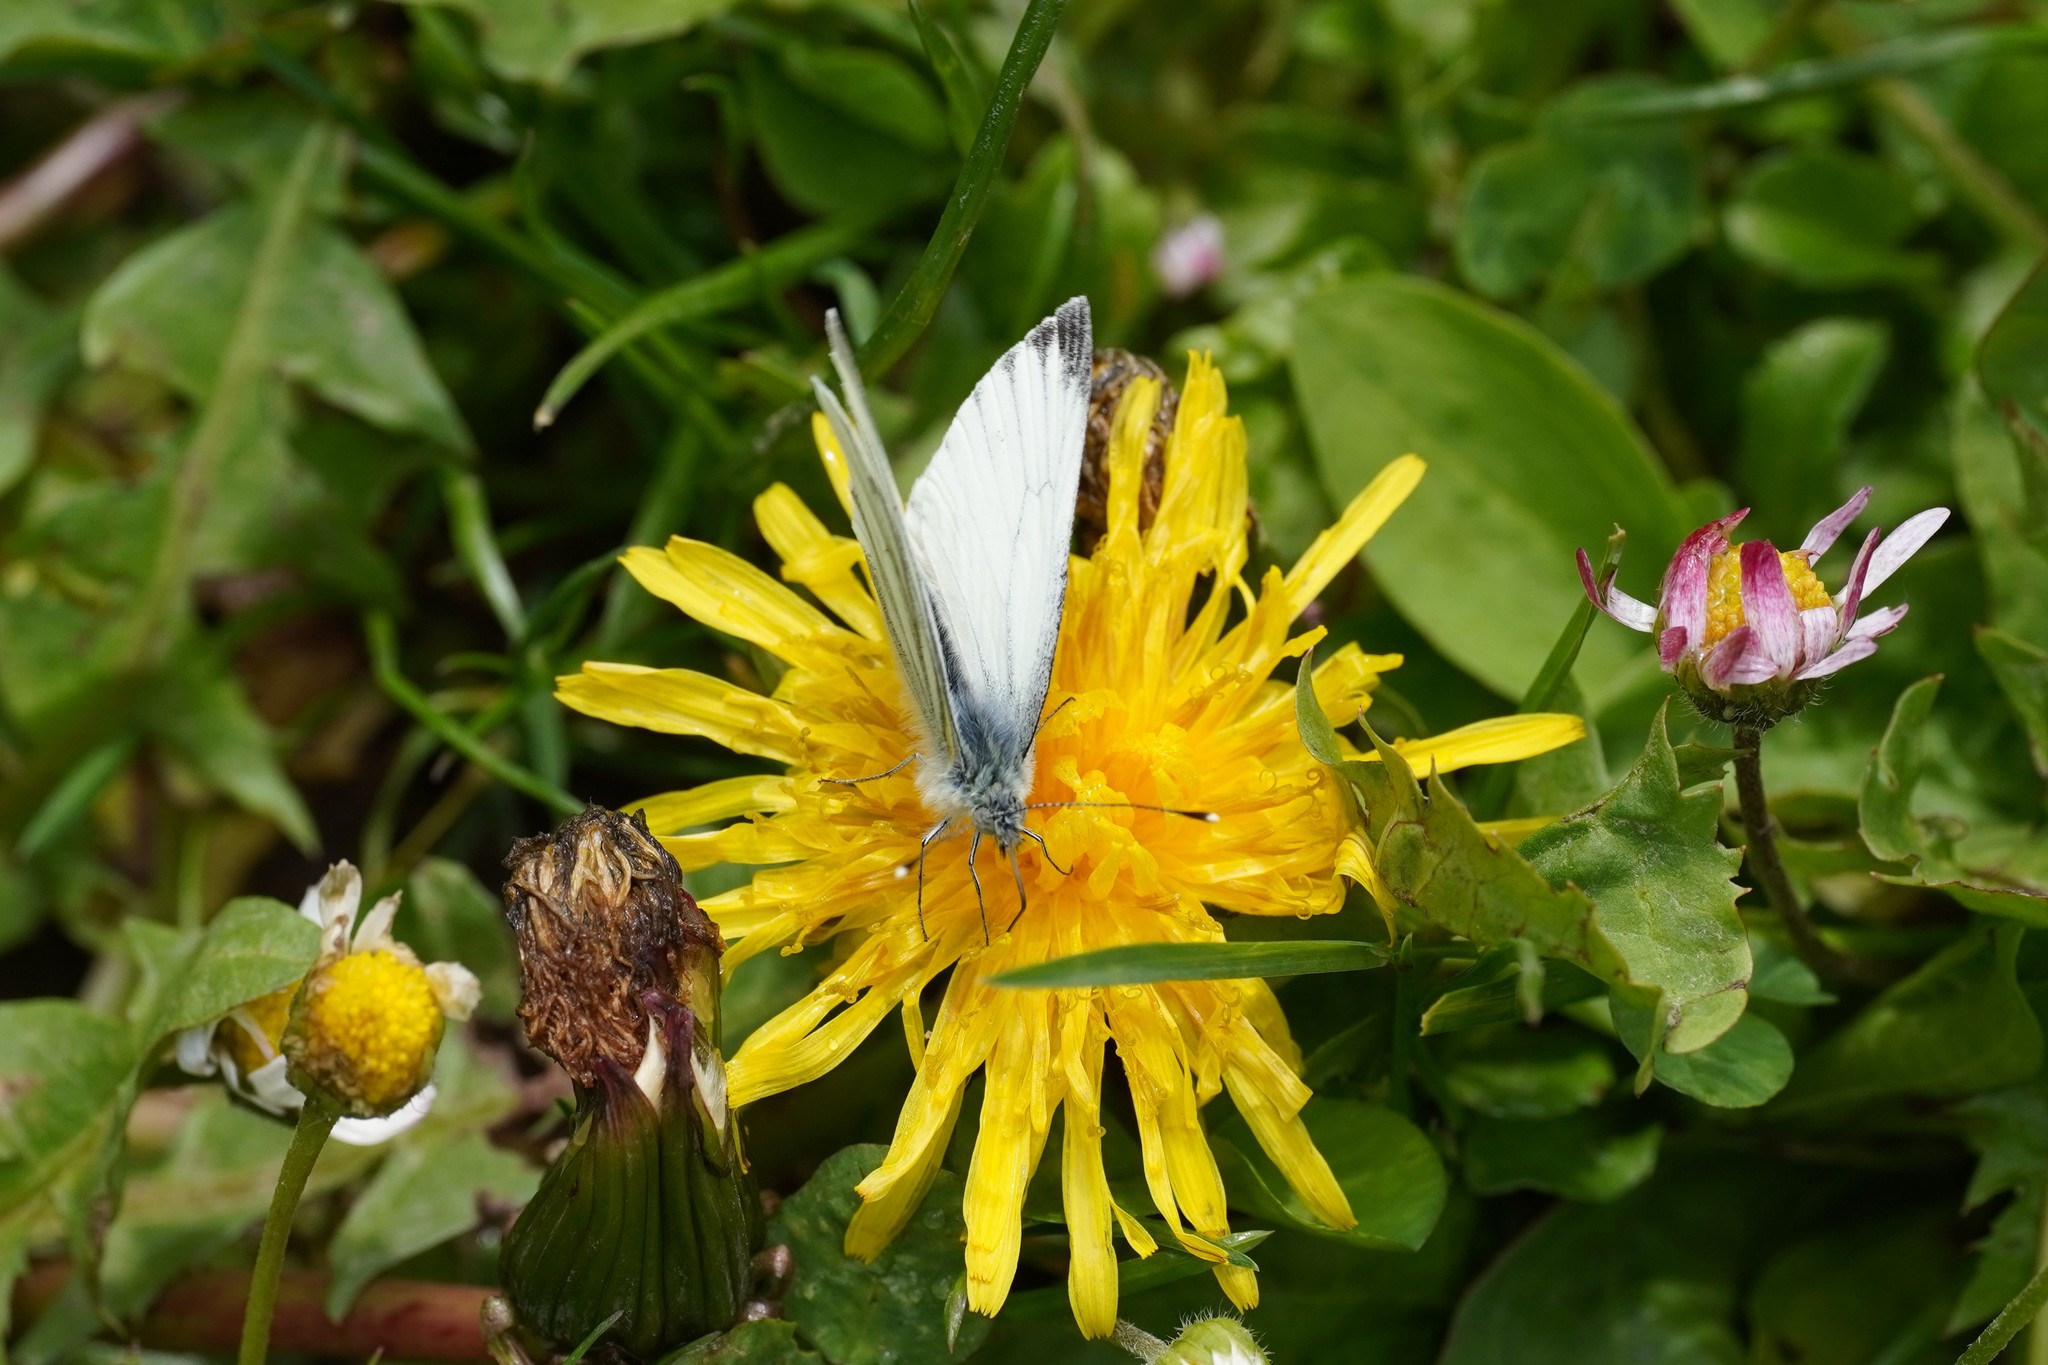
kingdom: Animalia
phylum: Arthropoda
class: Insecta
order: Lepidoptera
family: Pieridae
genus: Pieris
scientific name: Pieris napi
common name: Green-veined white
